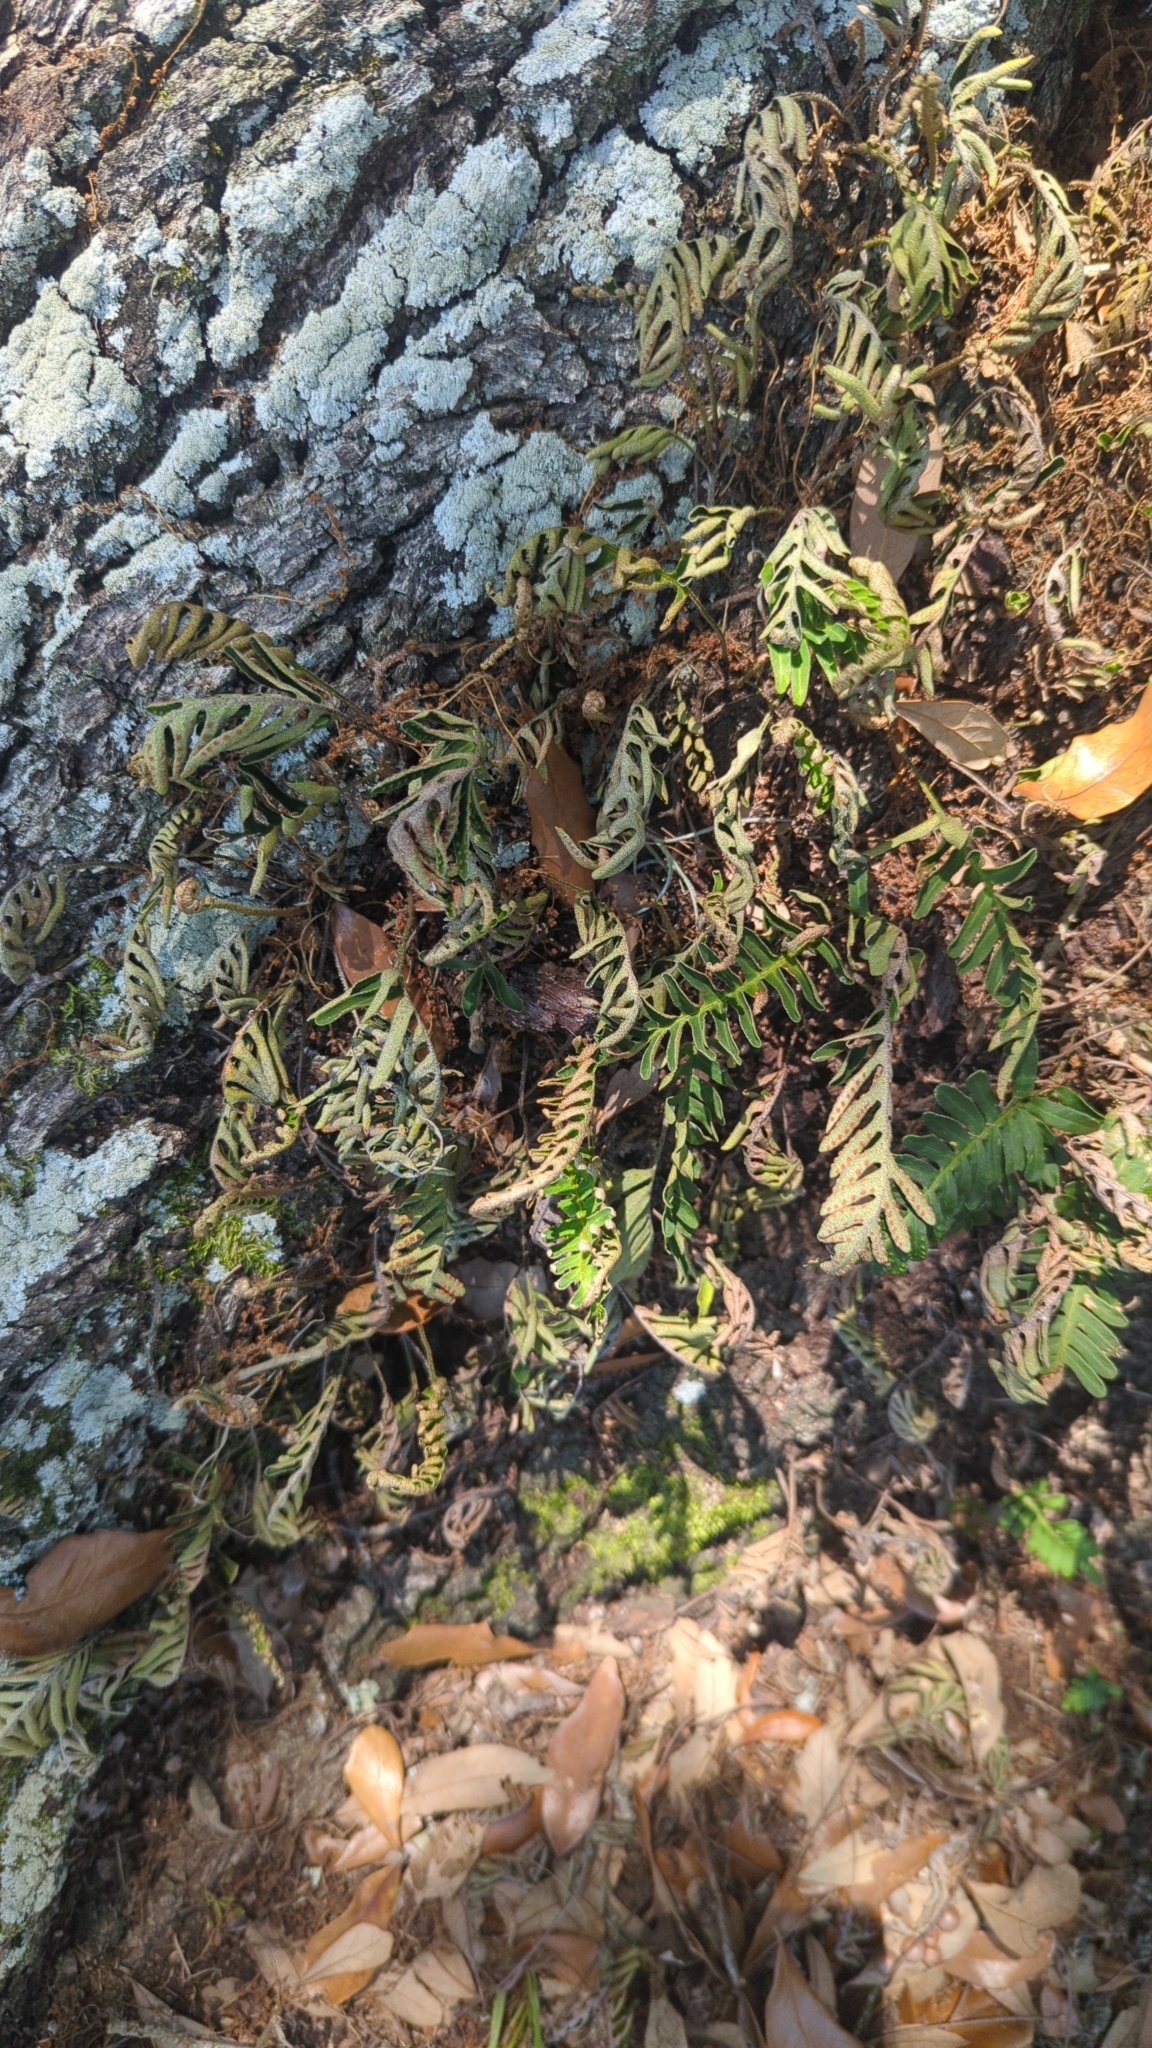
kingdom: Plantae
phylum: Tracheophyta
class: Polypodiopsida
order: Polypodiales
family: Polypodiaceae
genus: Pleopeltis
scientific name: Pleopeltis michauxiana
